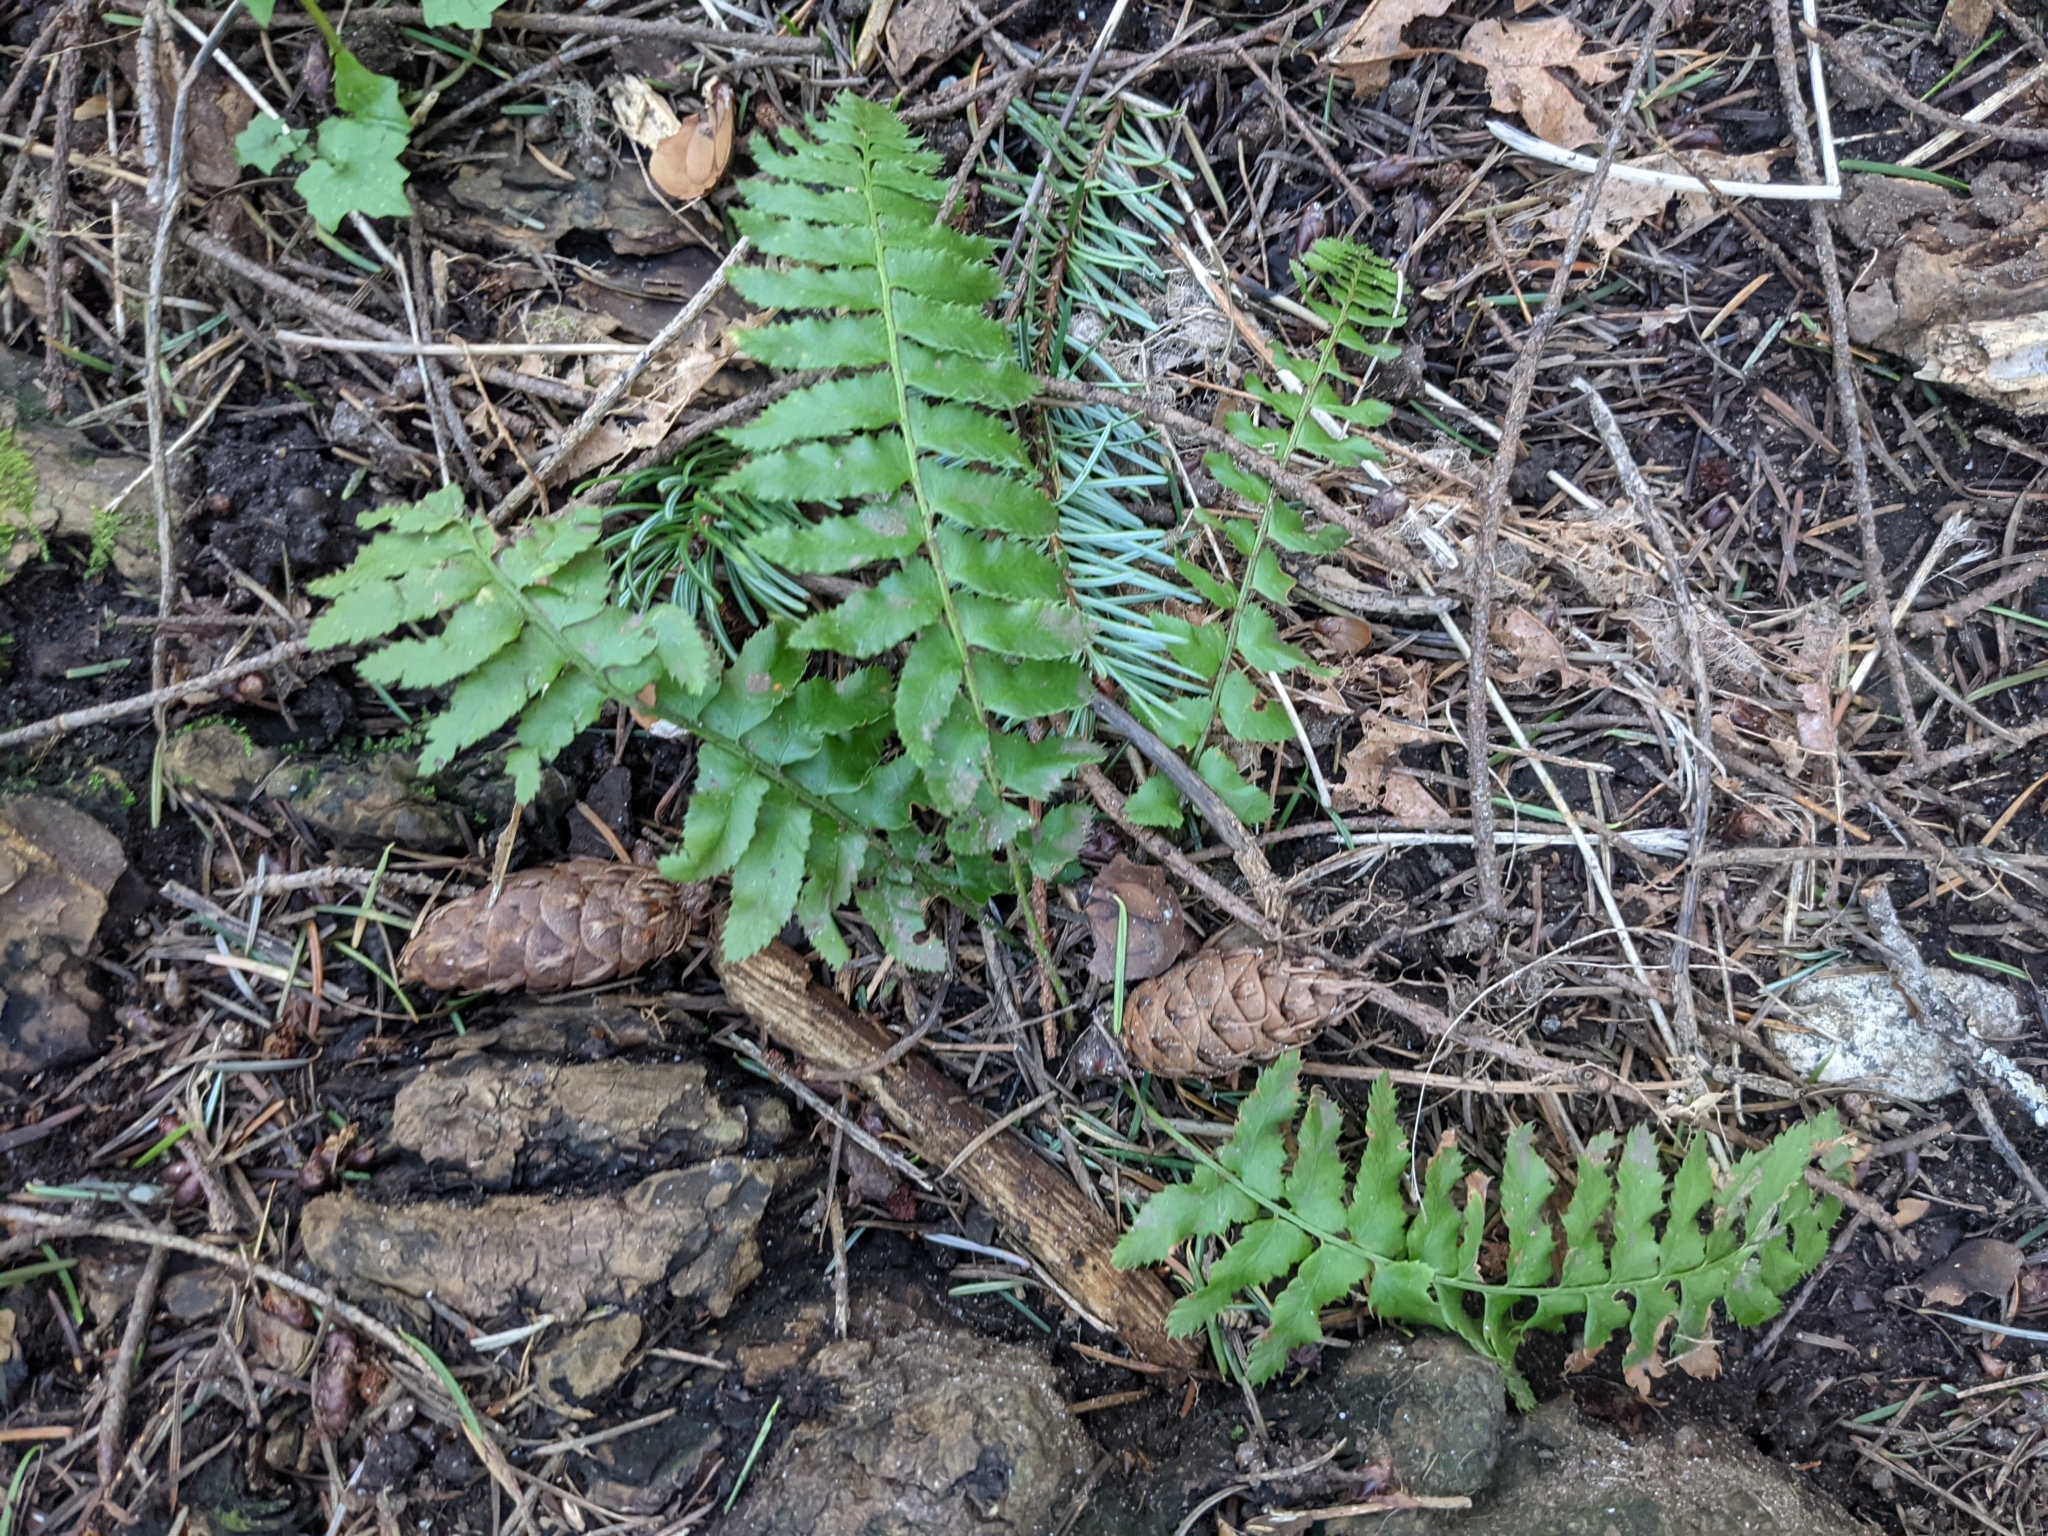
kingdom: Plantae
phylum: Tracheophyta
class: Polypodiopsida
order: Polypodiales
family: Dryopteridaceae
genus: Polystichum
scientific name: Polystichum munitum
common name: Western sword-fern
